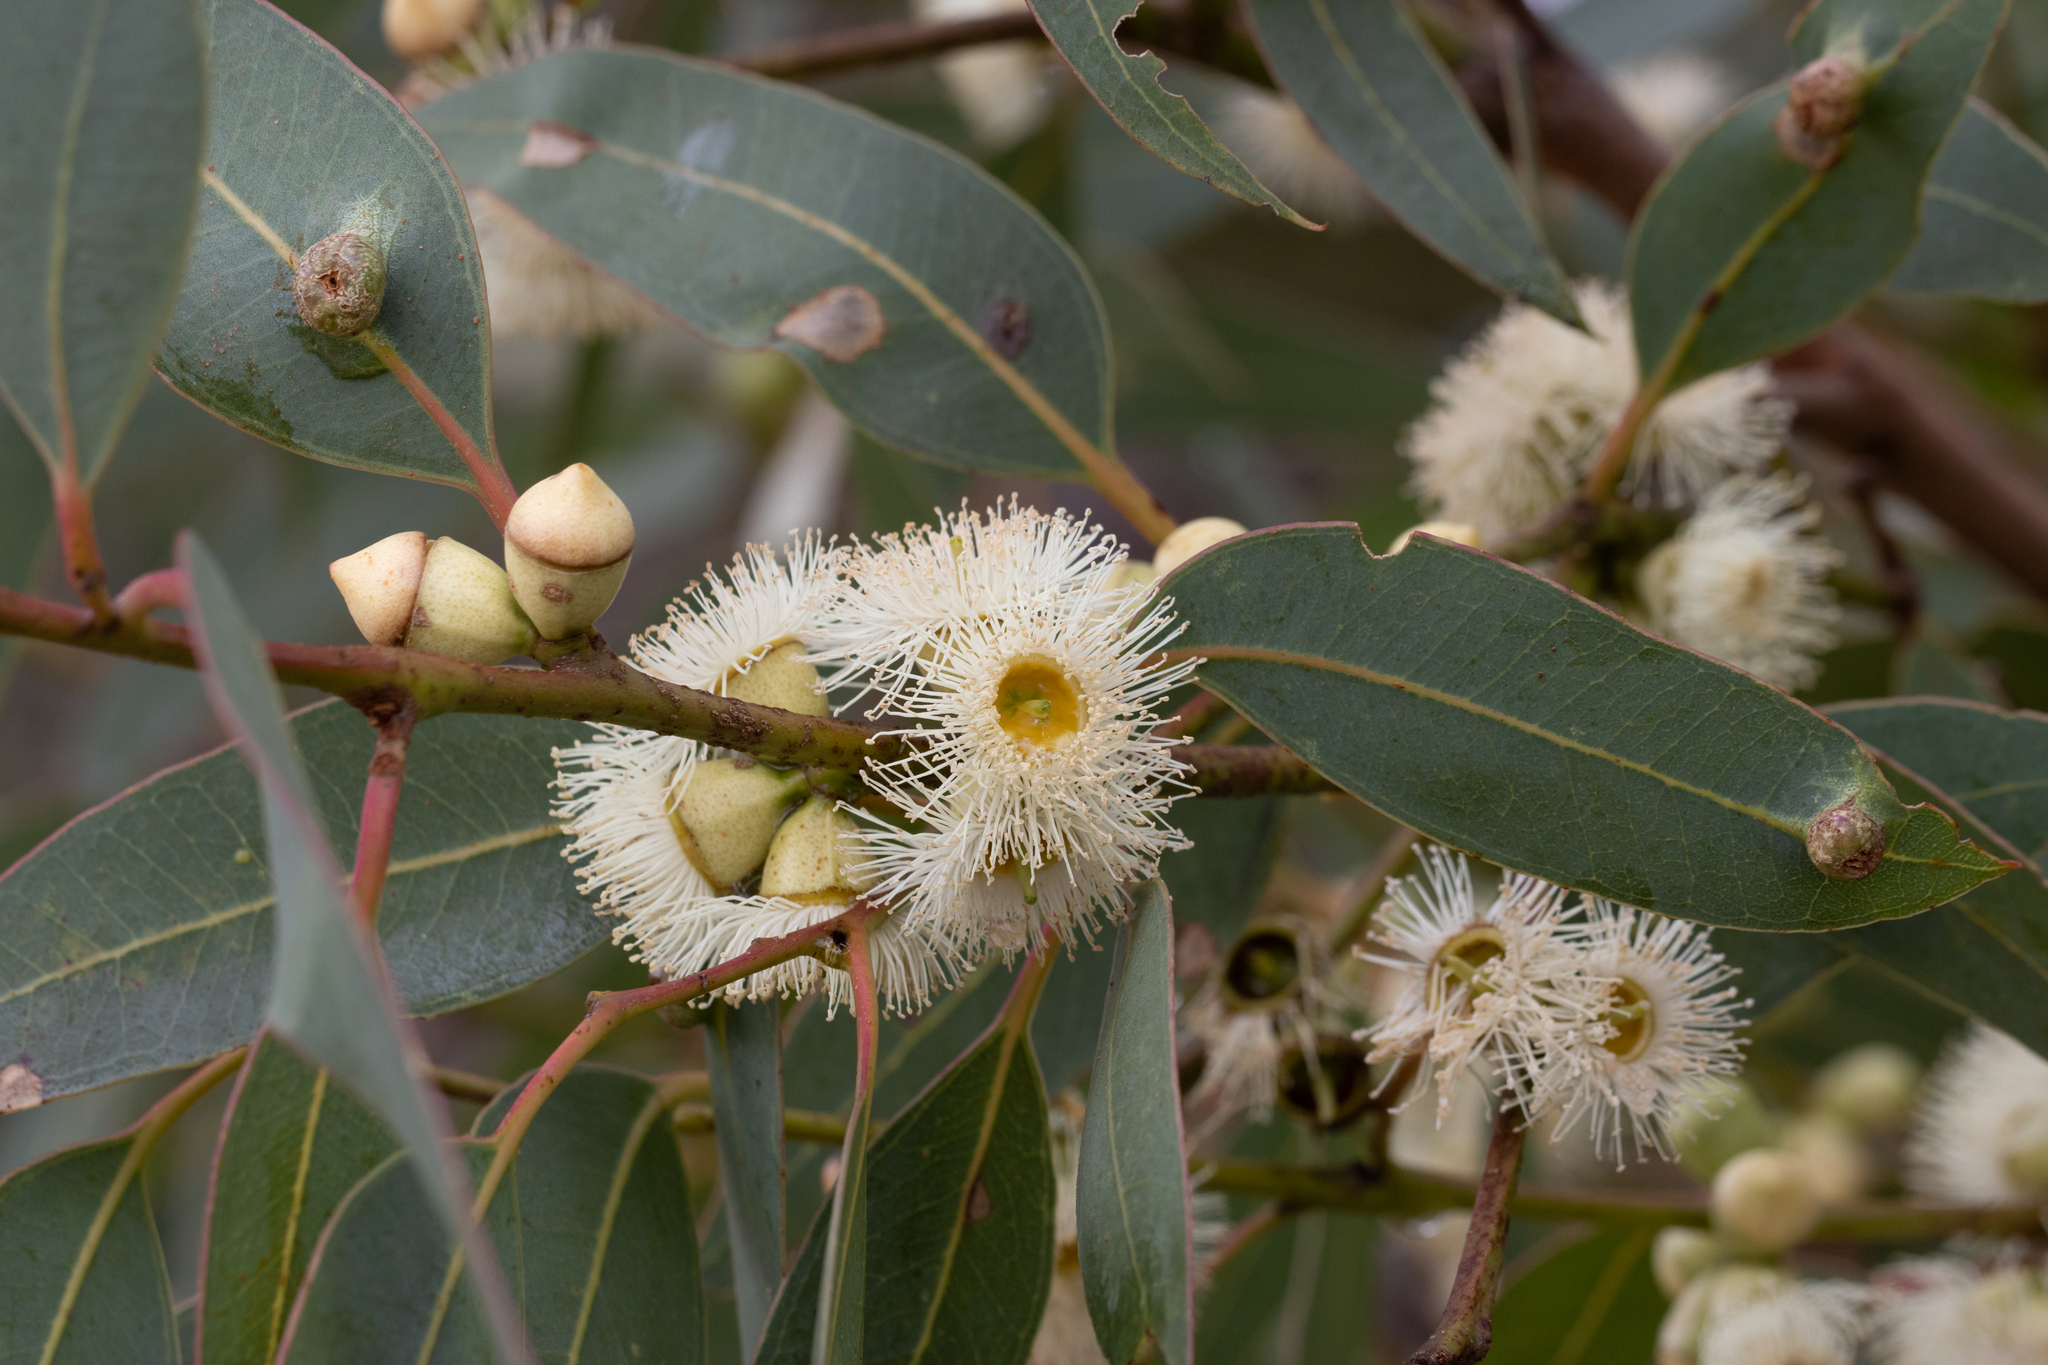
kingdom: Plantae
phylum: Tracheophyta
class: Magnoliopsida
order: Myrtales
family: Myrtaceae
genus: Eucalyptus
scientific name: Eucalyptus cosmophylla
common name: Bog-gum
